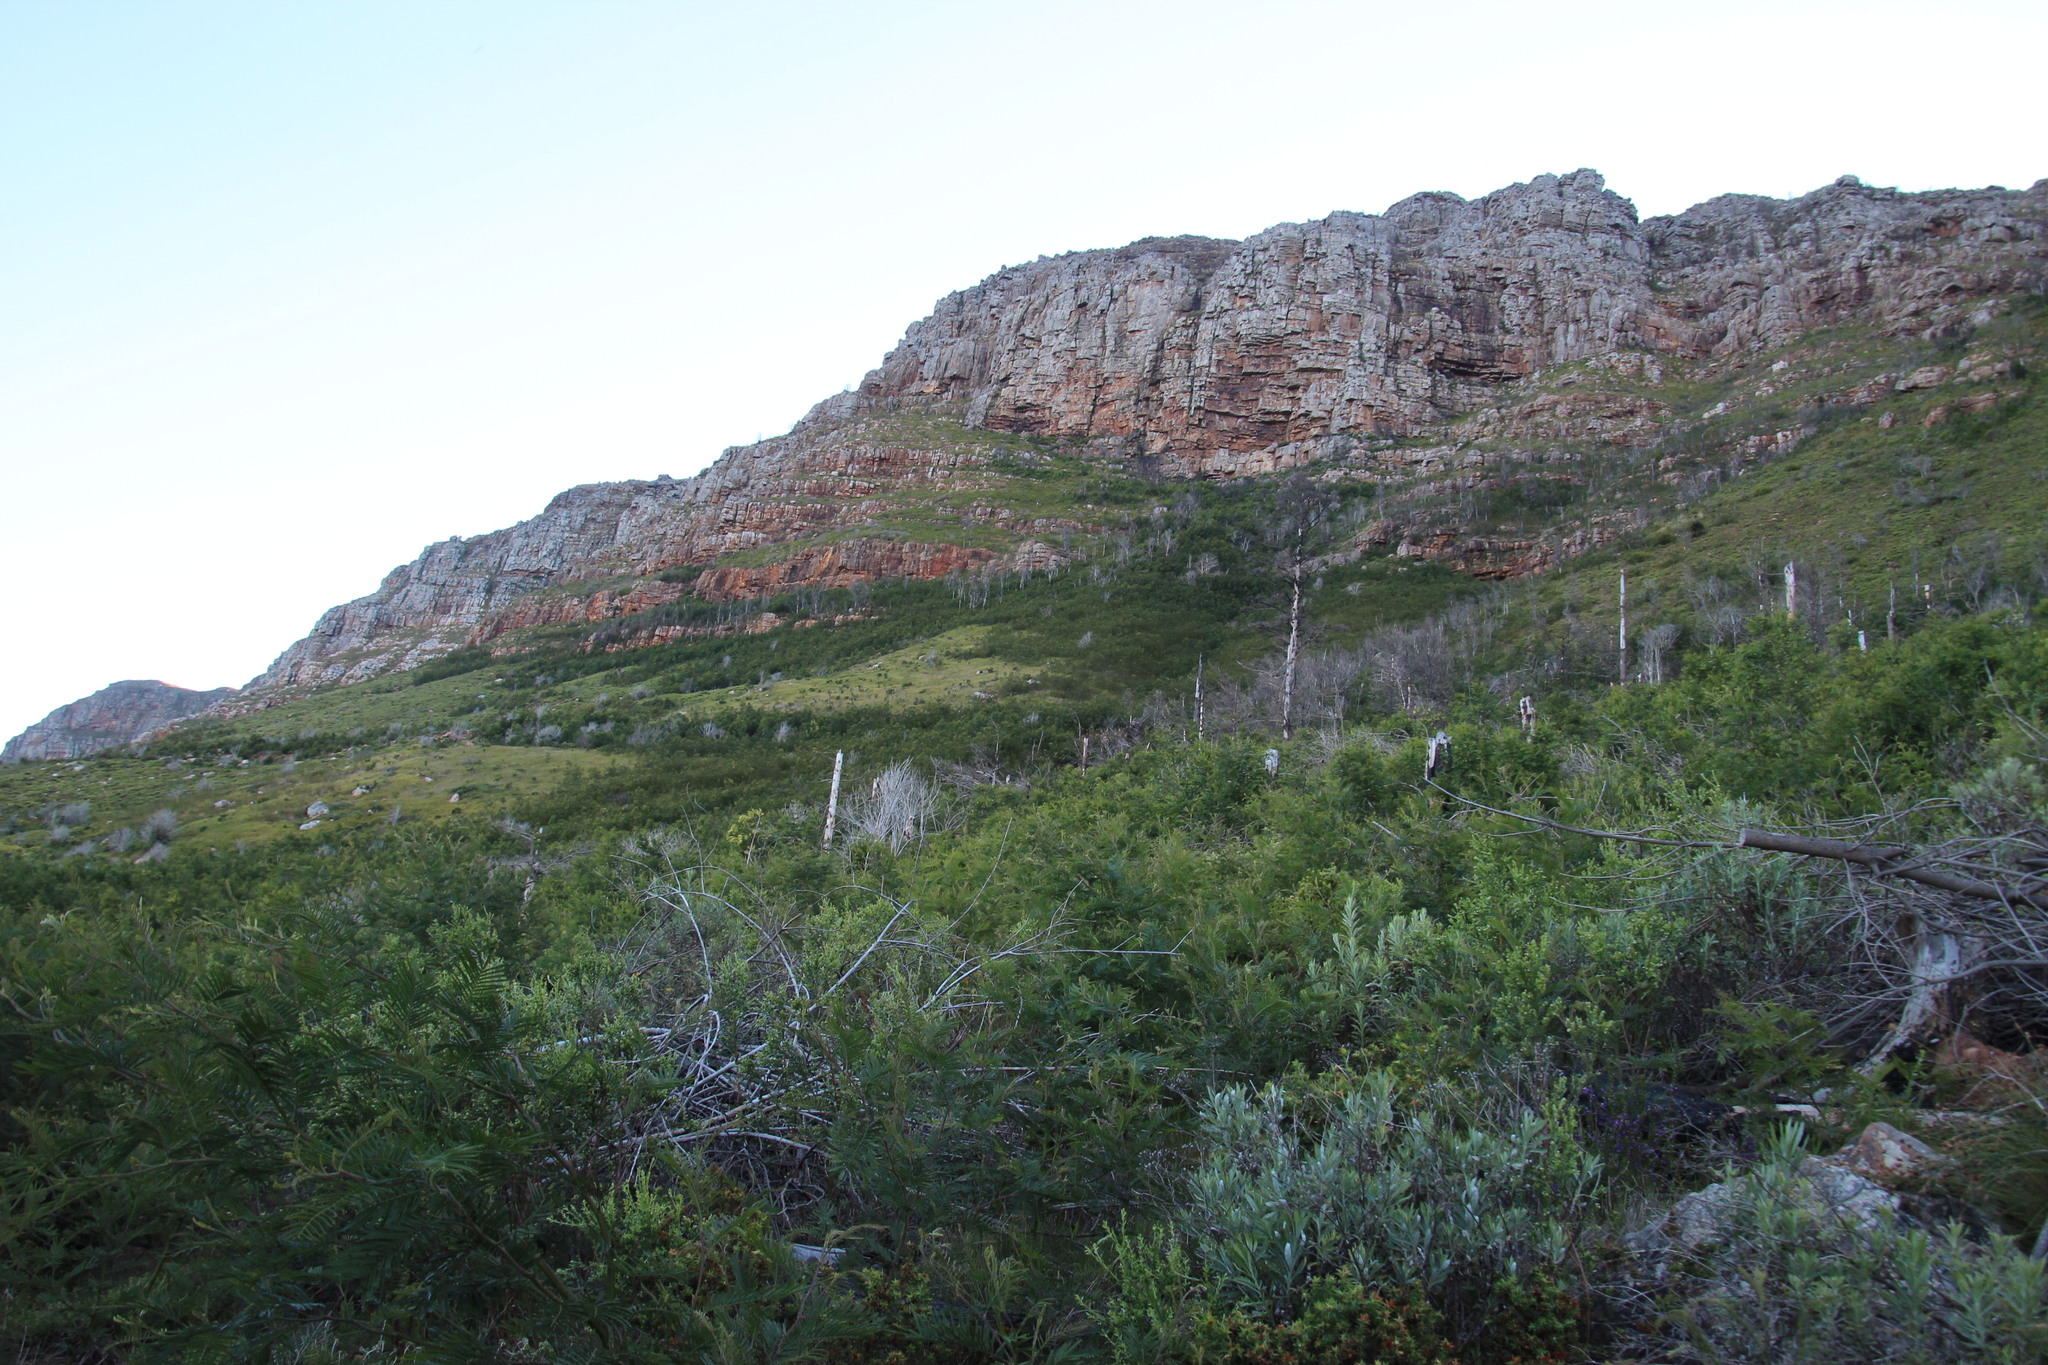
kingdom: Plantae
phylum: Tracheophyta
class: Magnoliopsida
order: Fabales
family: Fabaceae
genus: Acacia
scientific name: Acacia mearnsii
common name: Black wattle
